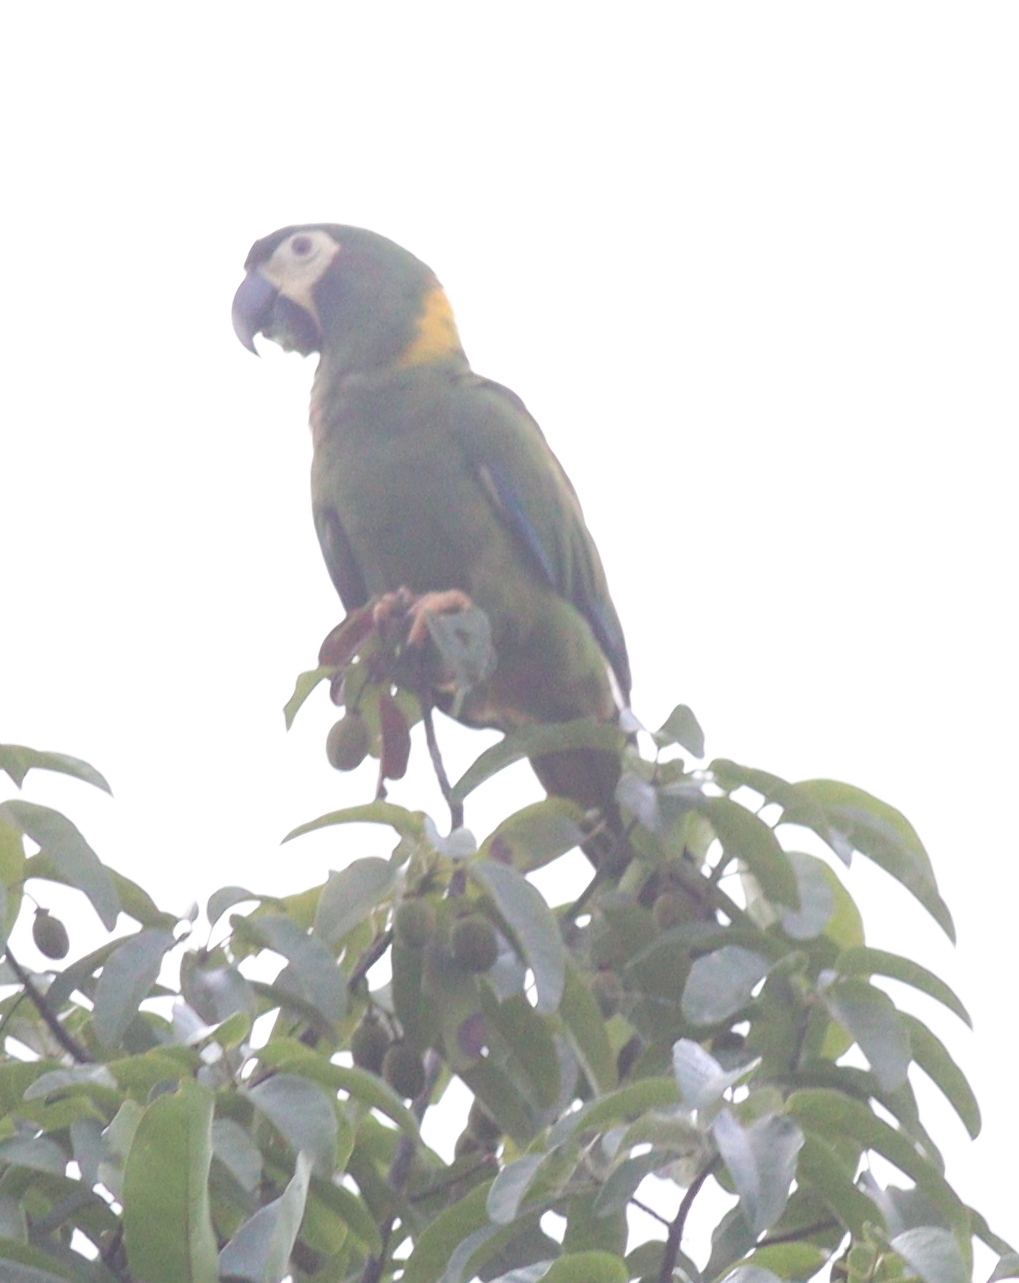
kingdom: Animalia
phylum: Chordata
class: Aves
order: Psittaciformes
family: Psittacidae
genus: Primolius
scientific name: Primolius auricollis
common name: Golden-collared macaw
